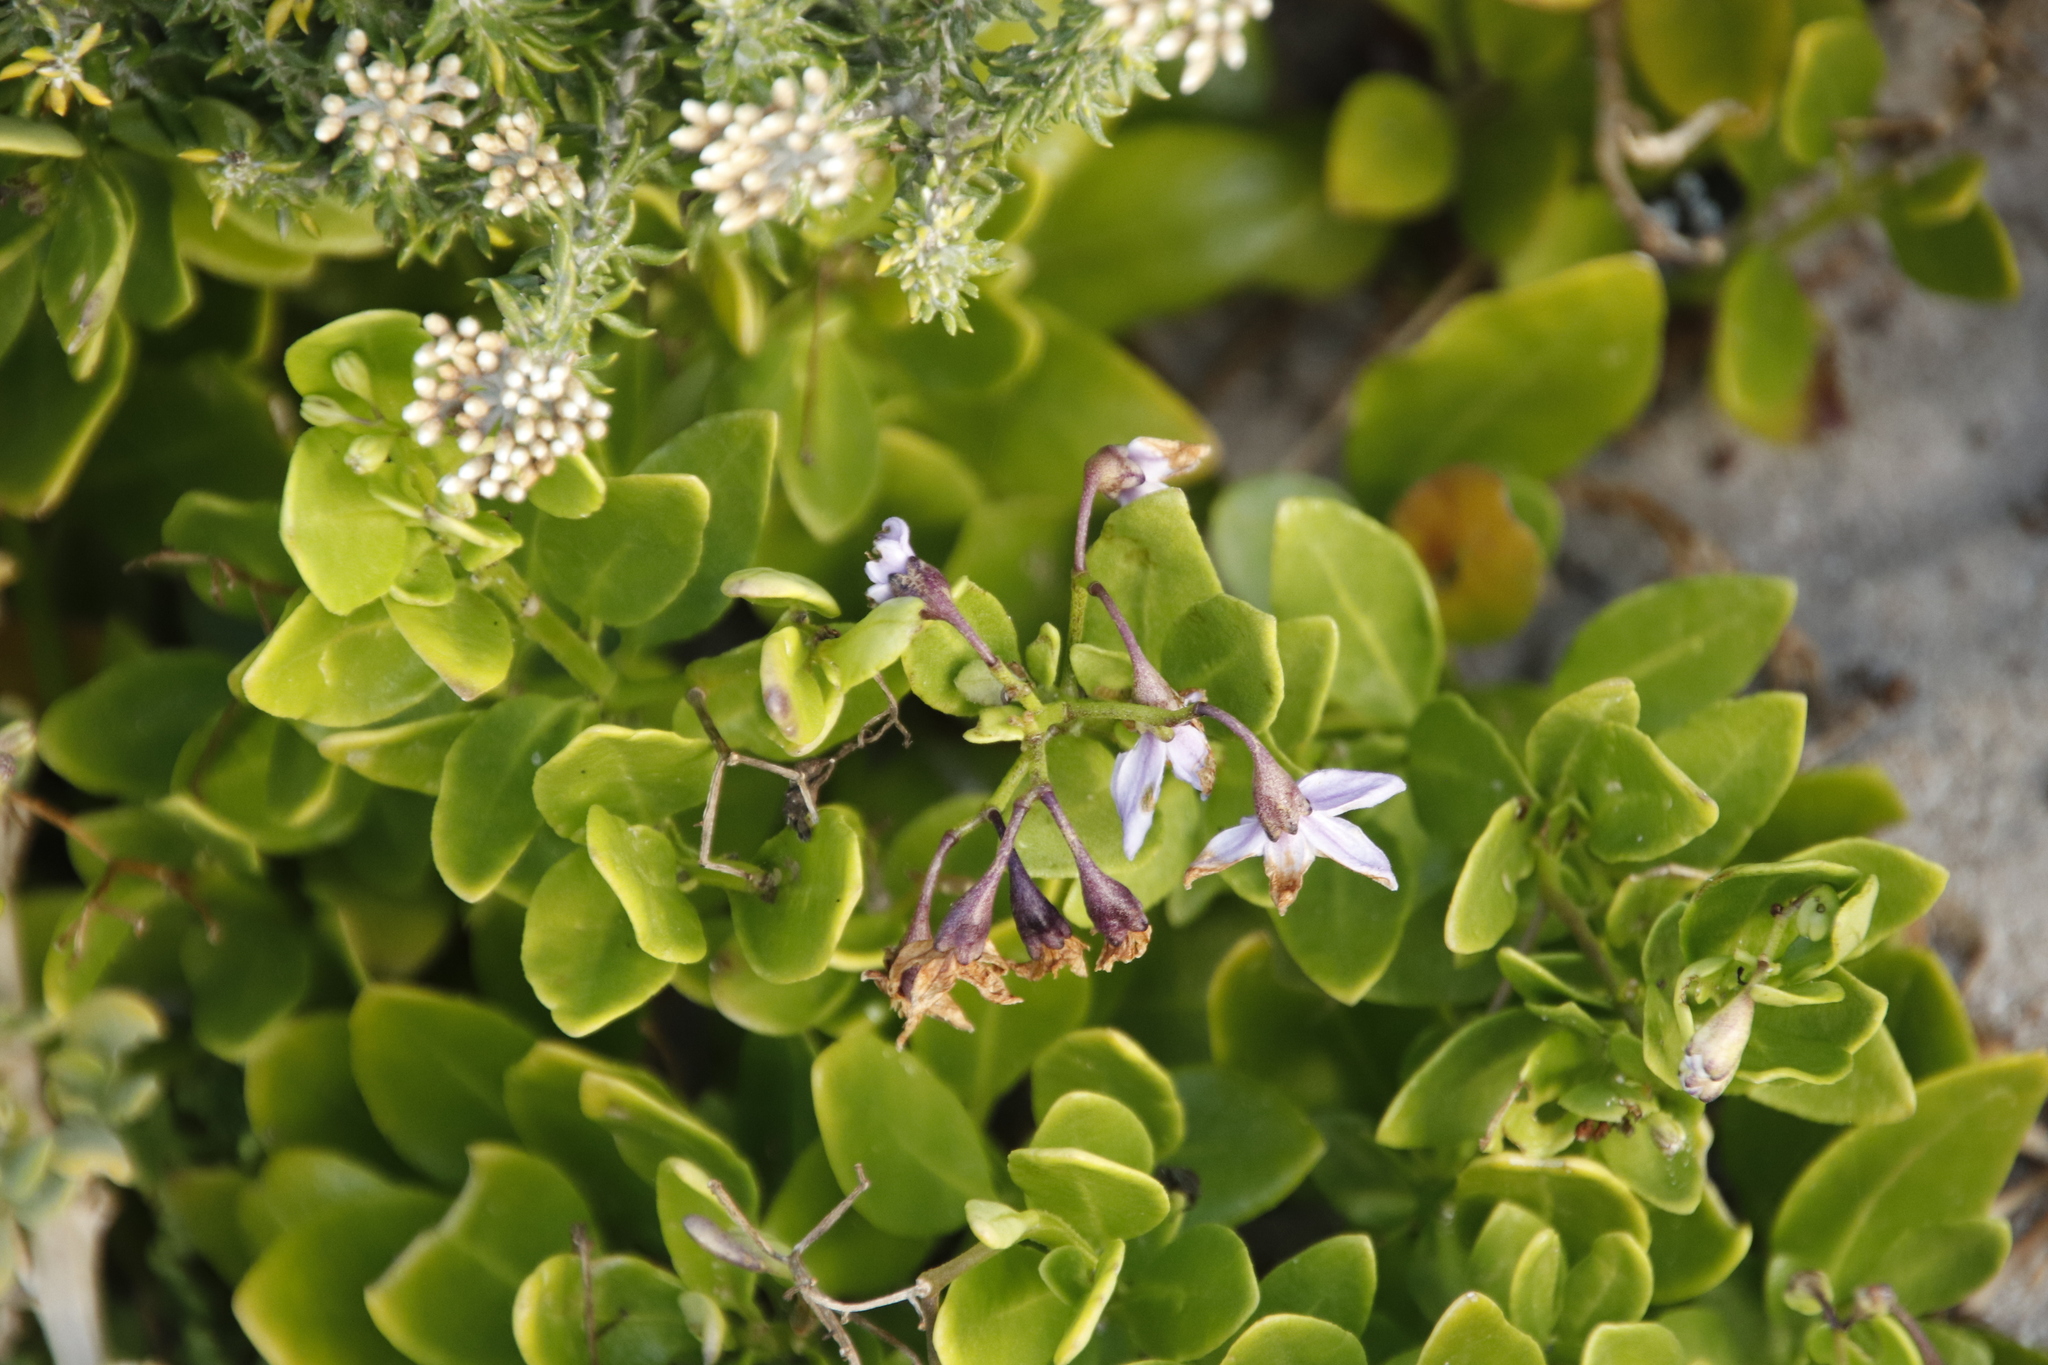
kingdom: Plantae
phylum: Tracheophyta
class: Magnoliopsida
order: Solanales
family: Solanaceae
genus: Solanum
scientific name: Solanum africanum
